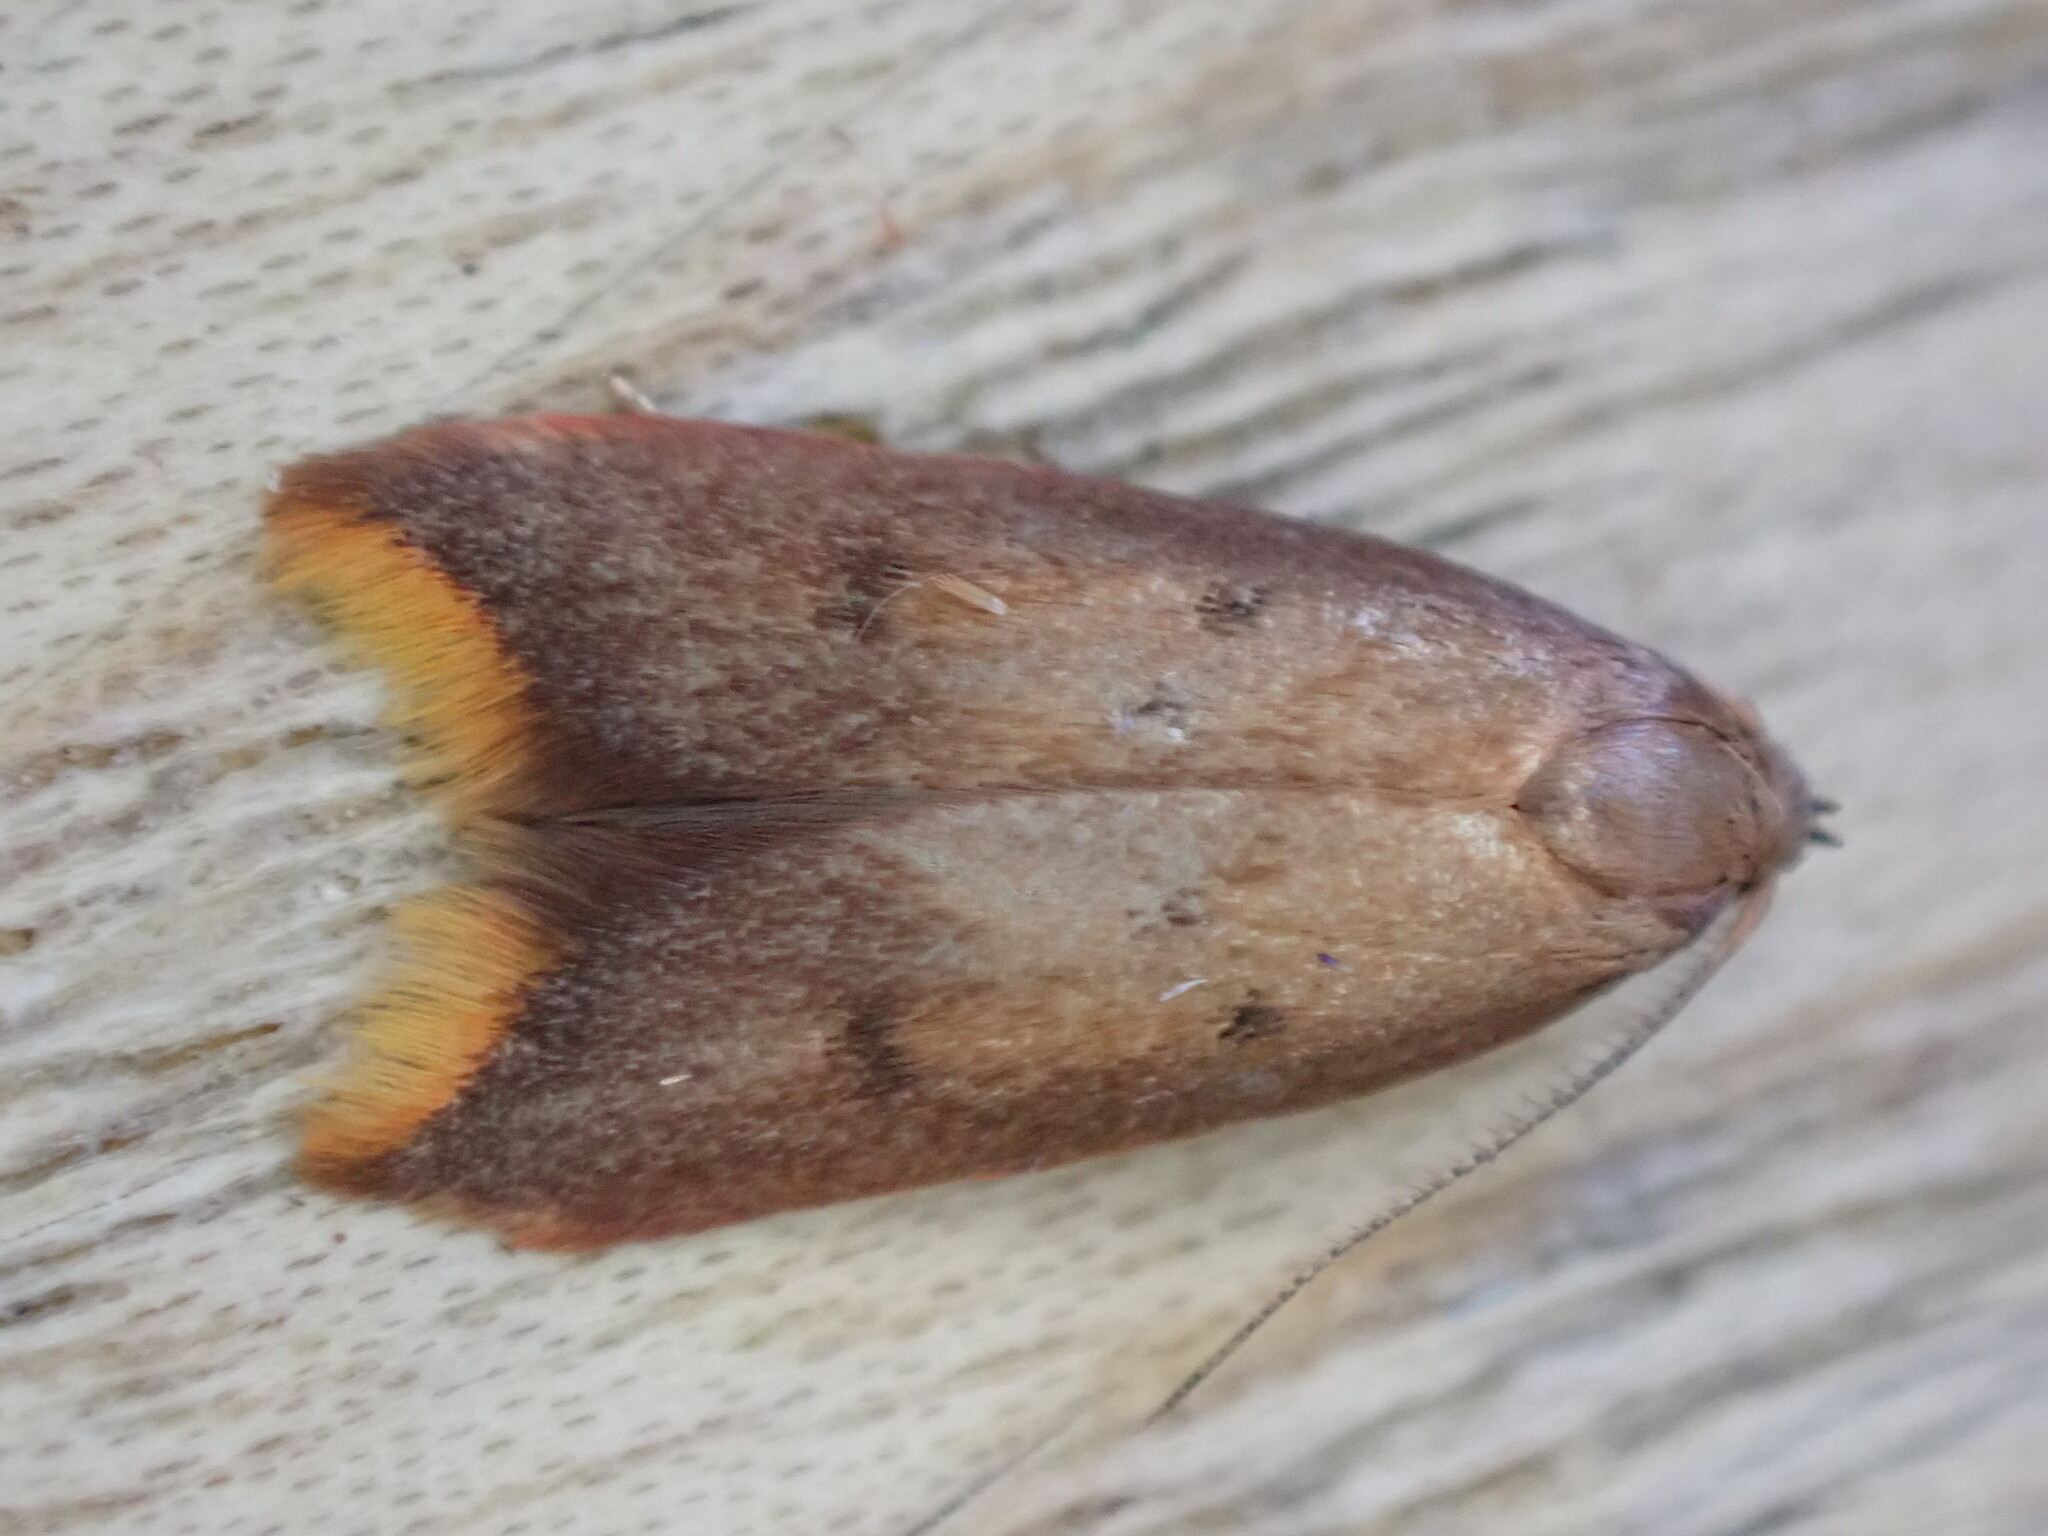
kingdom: Animalia
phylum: Arthropoda
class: Insecta
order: Lepidoptera
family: Oecophoridae
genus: Tachystola
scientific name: Tachystola acroxantha
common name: Ruddy streak
